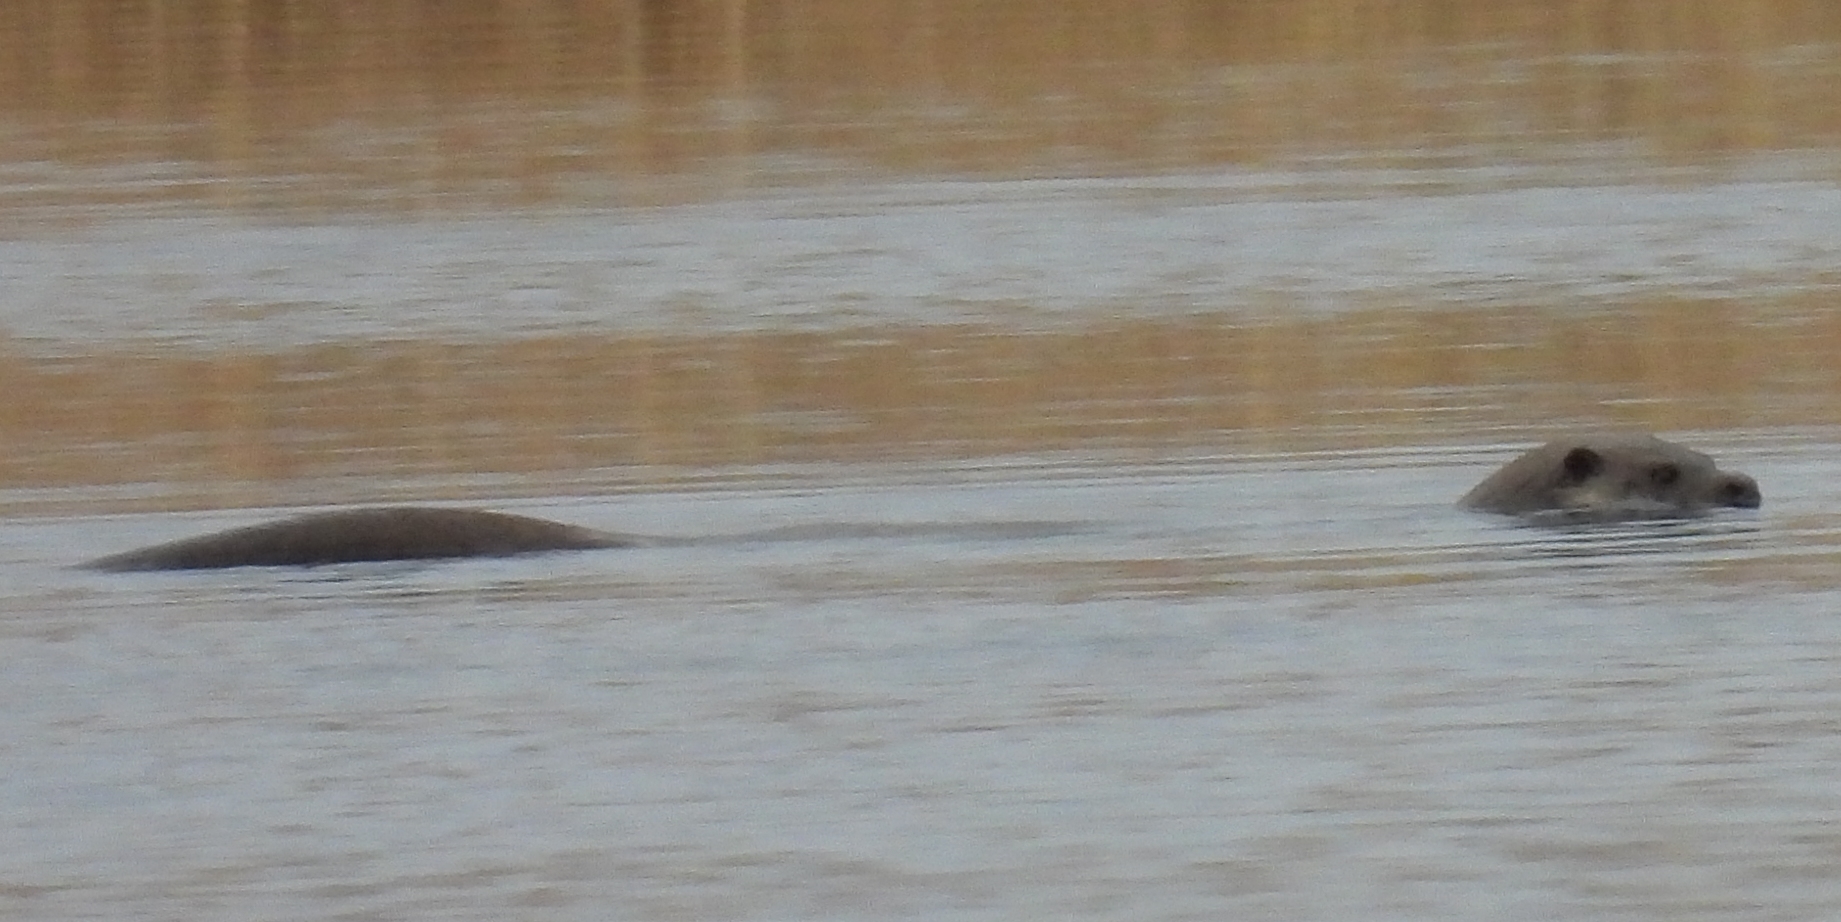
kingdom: Animalia
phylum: Chordata
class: Mammalia
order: Carnivora
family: Mustelidae
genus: Lutra
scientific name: Lutra lutra
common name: European otter
